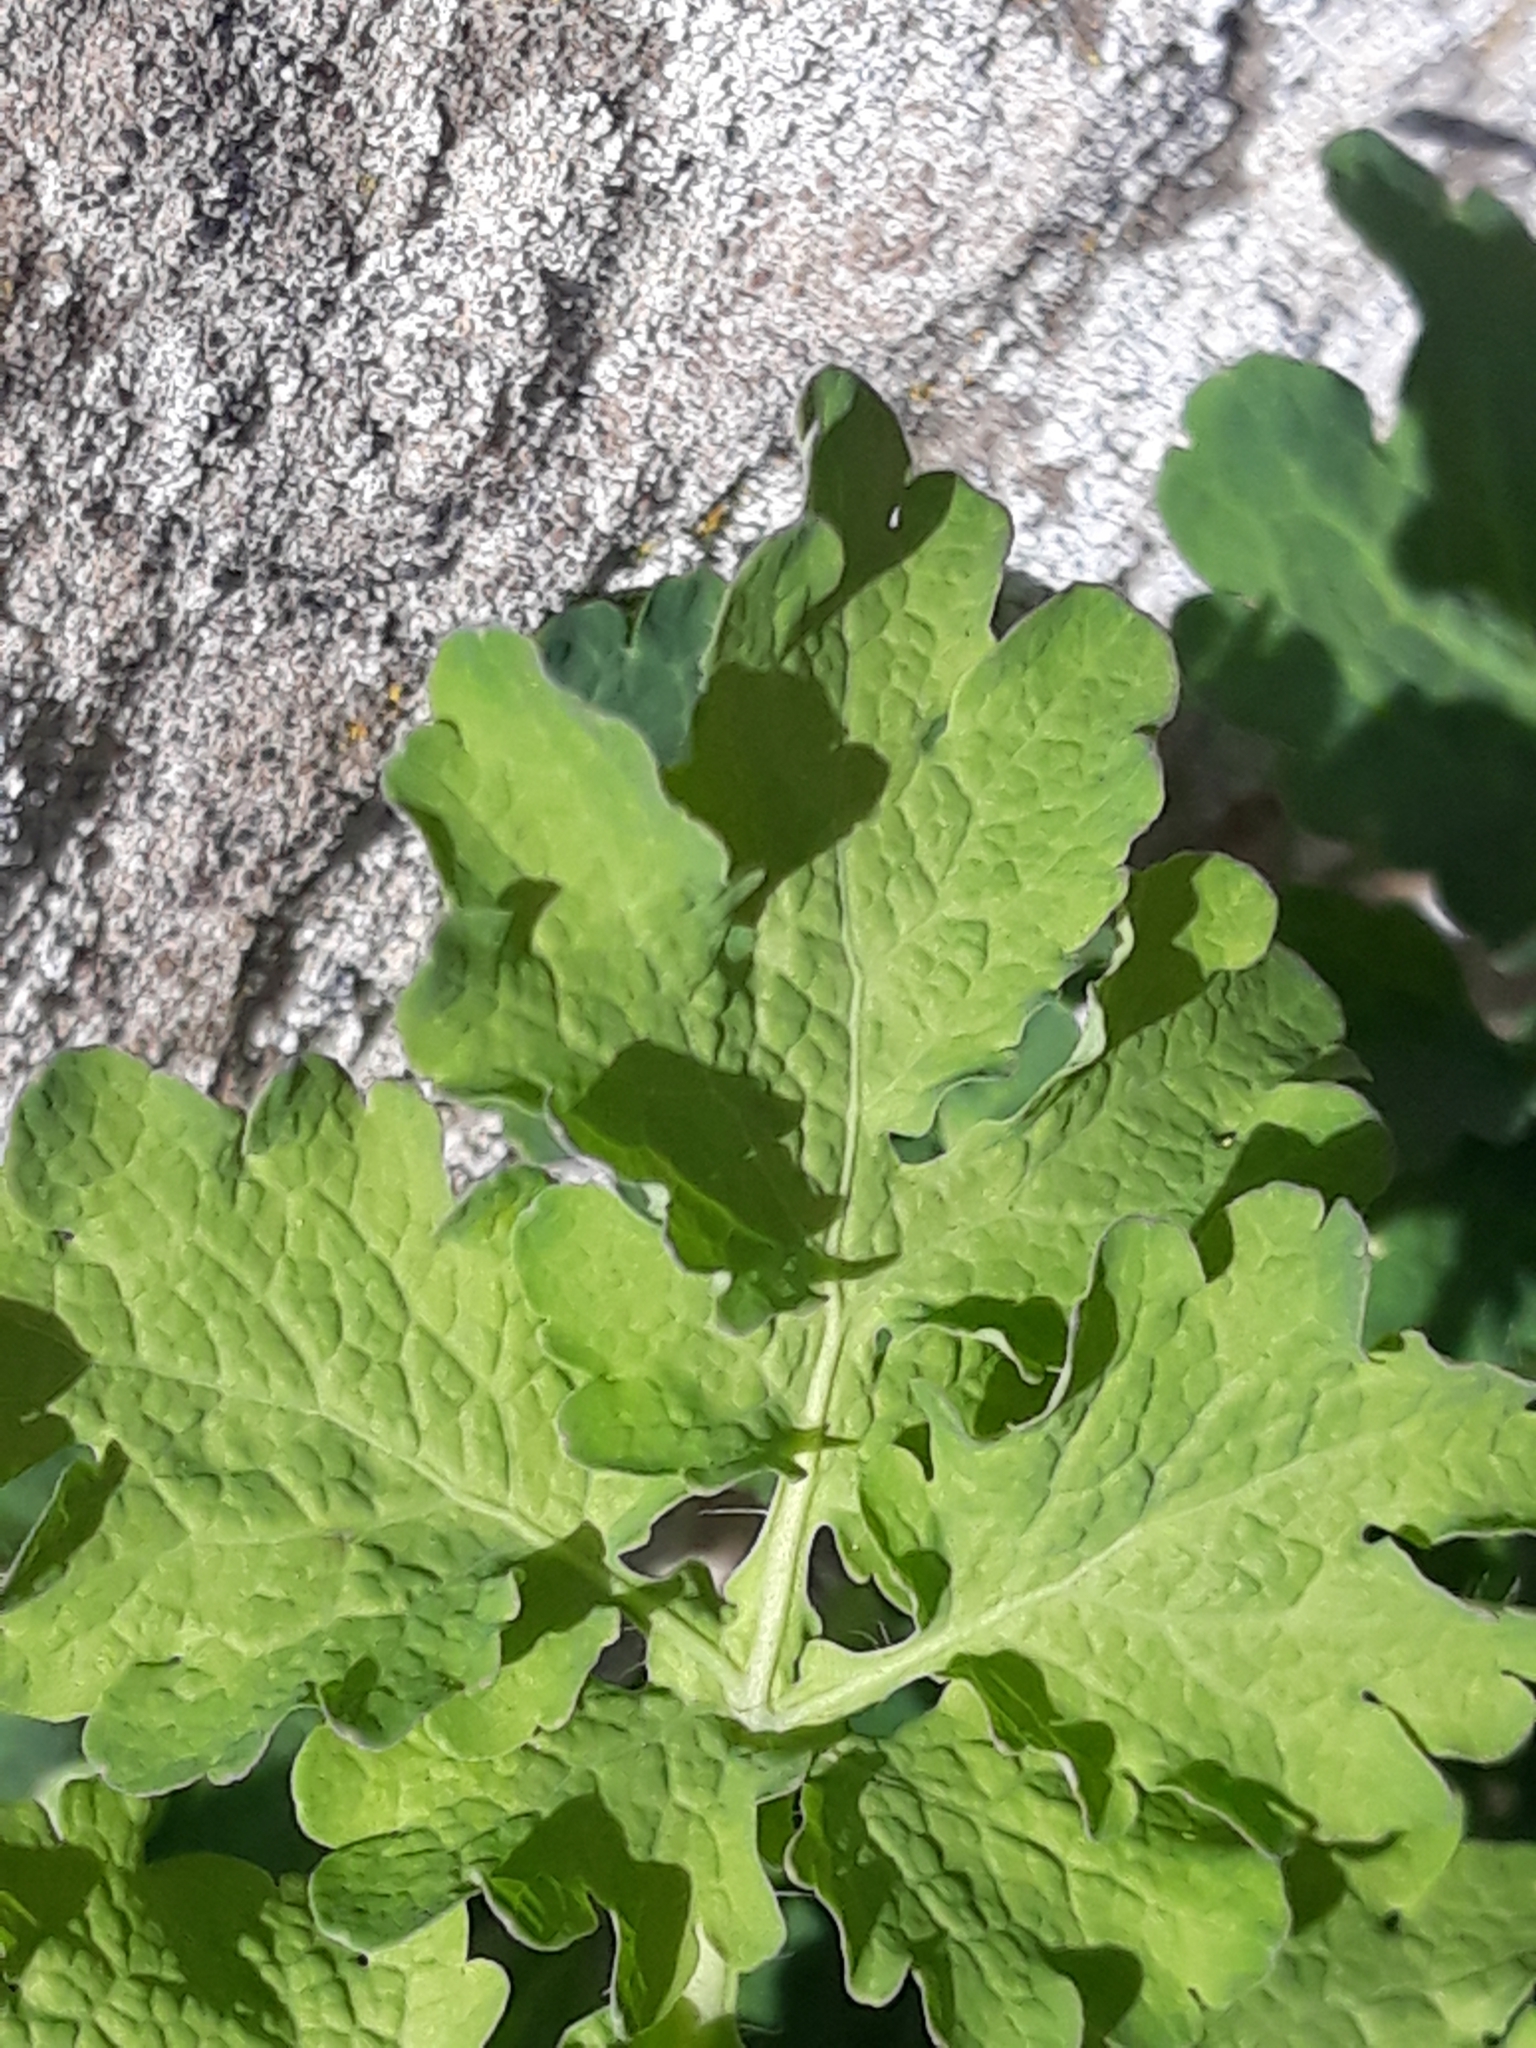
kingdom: Plantae
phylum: Tracheophyta
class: Magnoliopsida
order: Ranunculales
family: Papaveraceae
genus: Chelidonium
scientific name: Chelidonium majus
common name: Greater celandine
